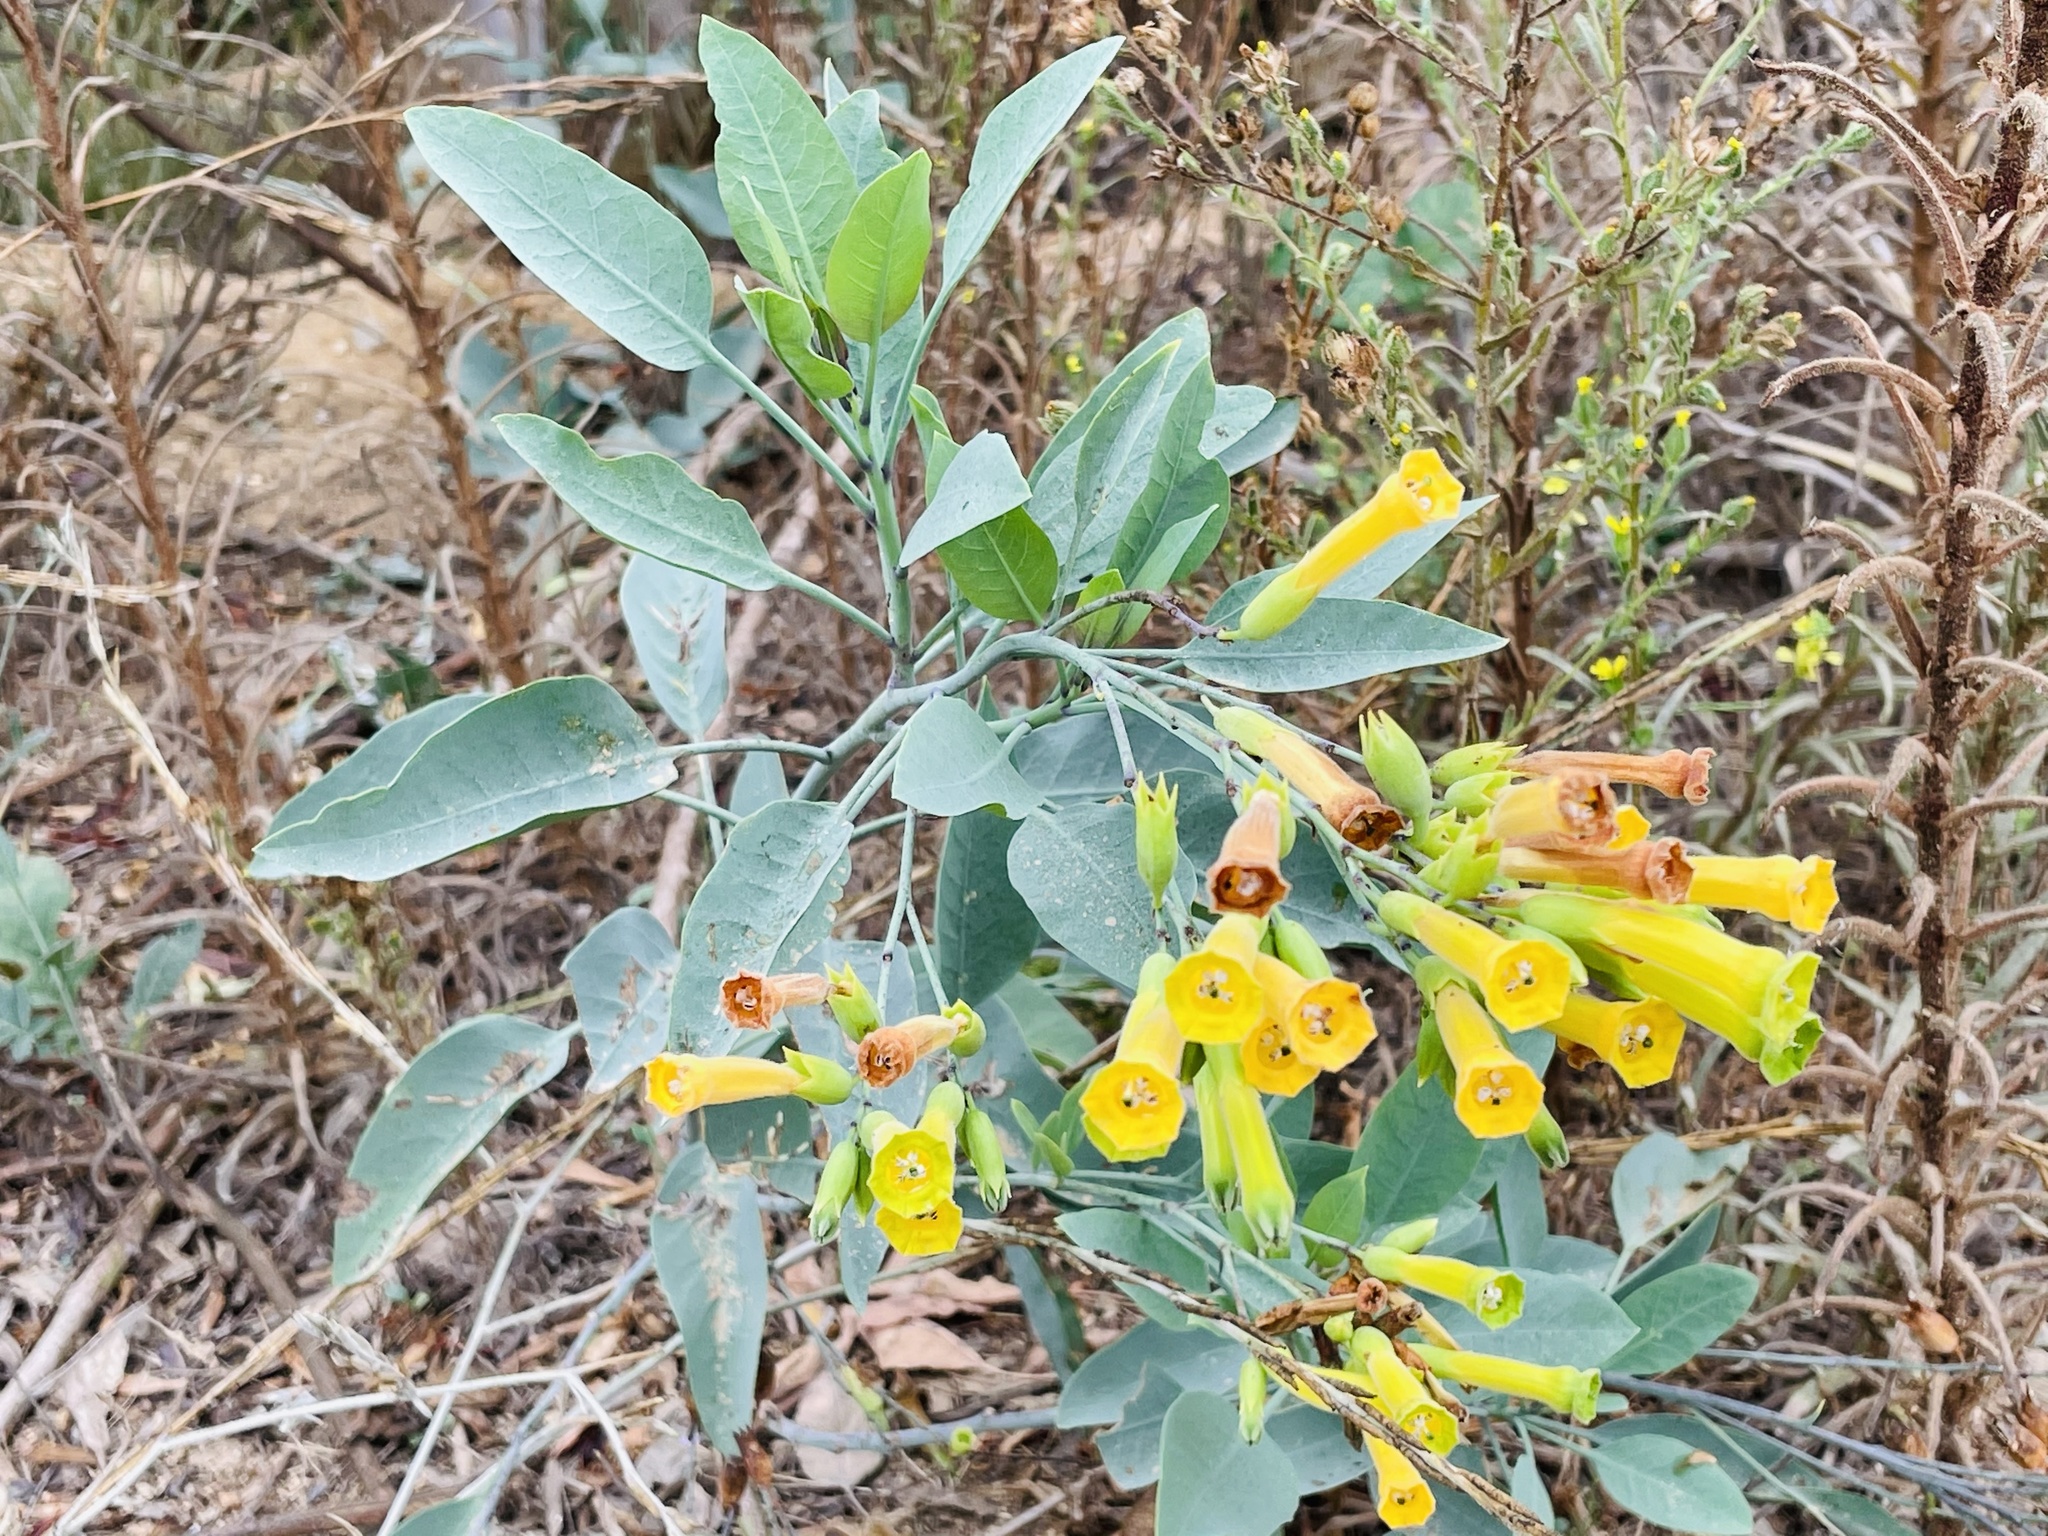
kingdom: Plantae
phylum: Tracheophyta
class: Magnoliopsida
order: Solanales
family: Solanaceae
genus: Nicotiana
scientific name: Nicotiana glauca
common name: Tree tobacco
